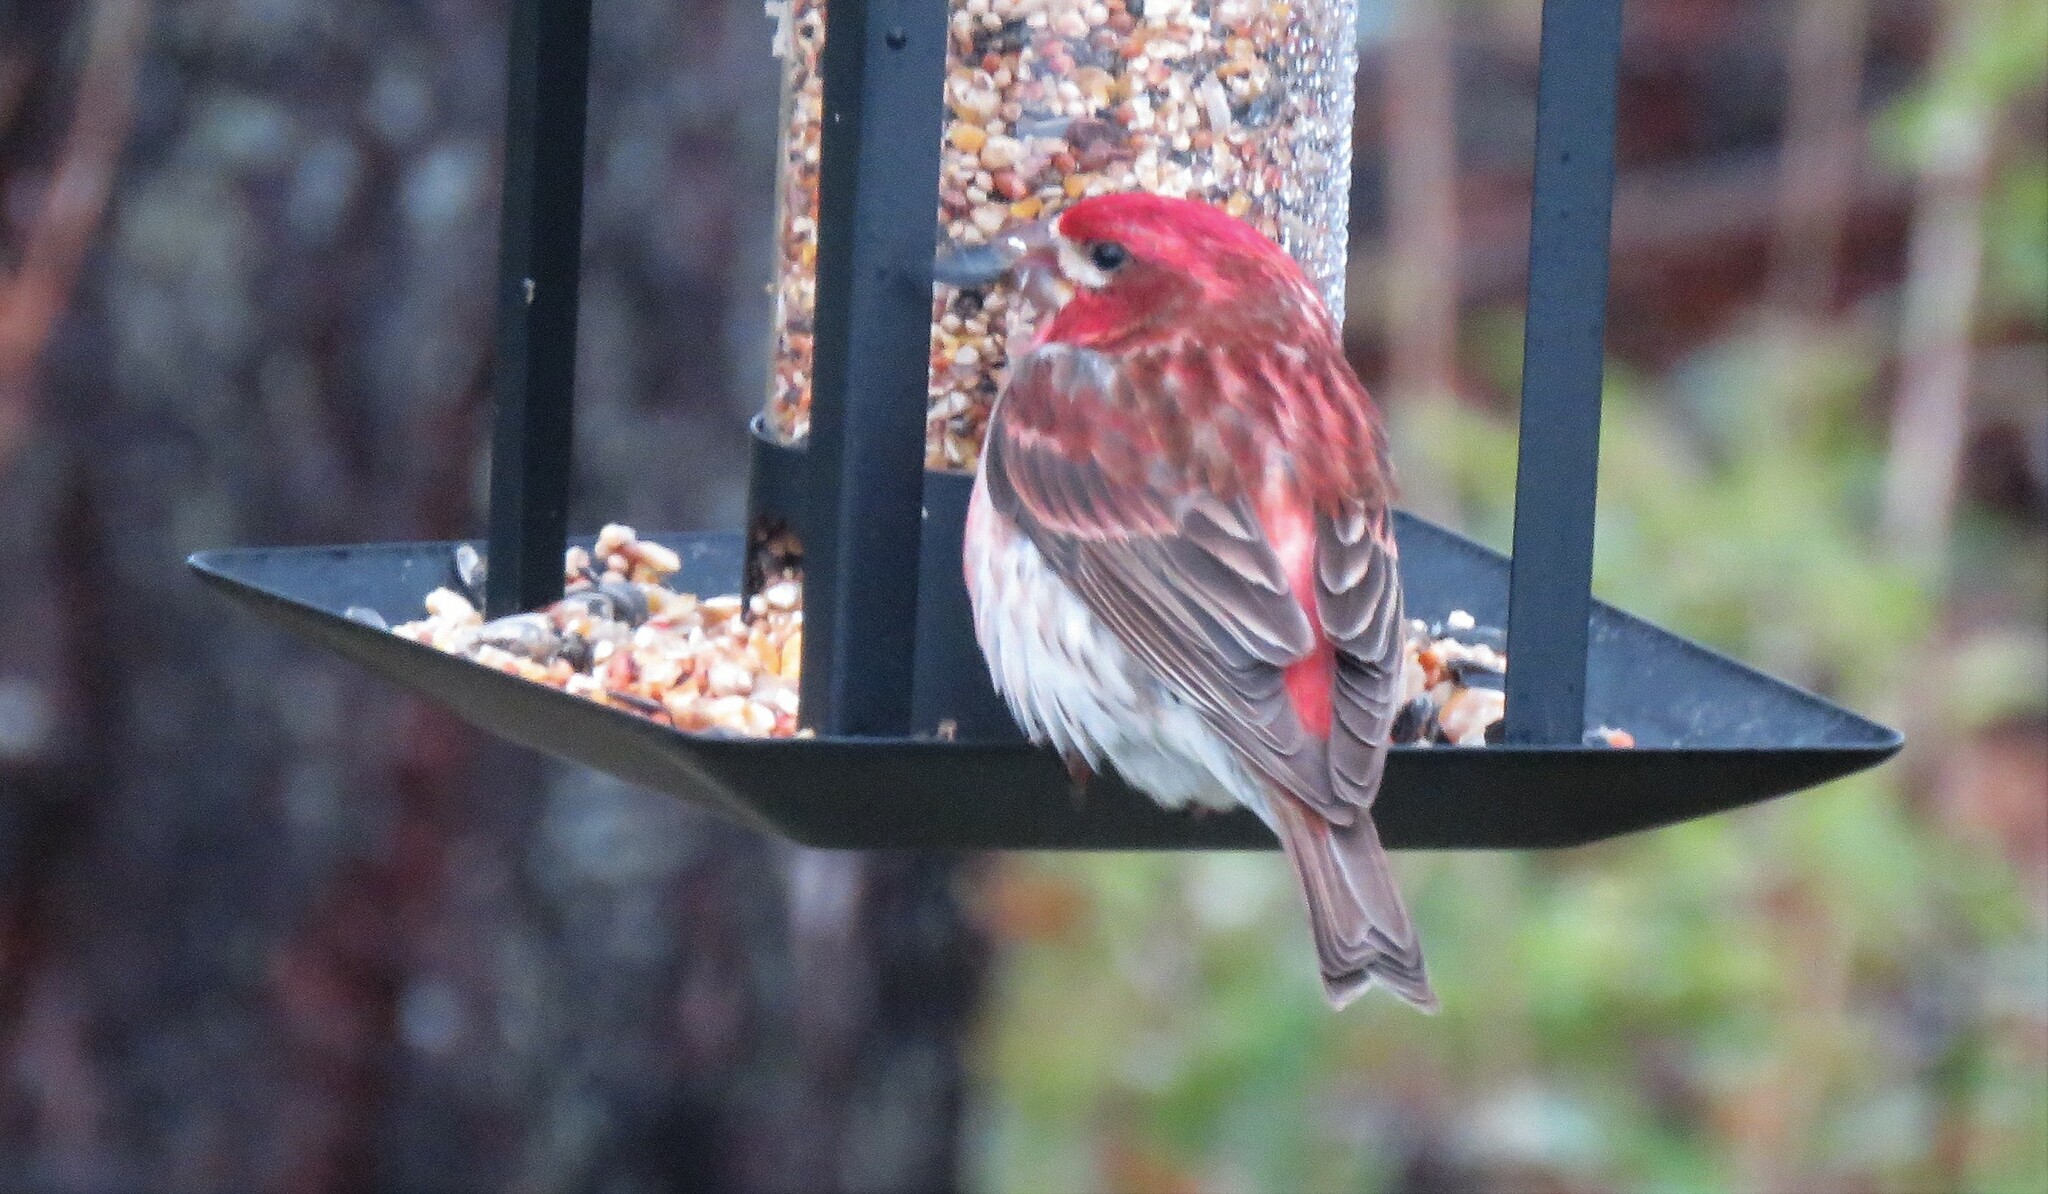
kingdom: Animalia
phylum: Chordata
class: Aves
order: Passeriformes
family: Fringillidae
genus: Haemorhous
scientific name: Haemorhous purpureus
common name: Purple finch
